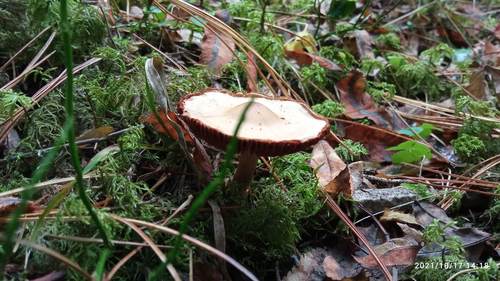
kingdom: Fungi
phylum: Basidiomycota
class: Agaricomycetes
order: Agaricales
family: Cortinariaceae
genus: Cortinarius
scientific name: Cortinarius
